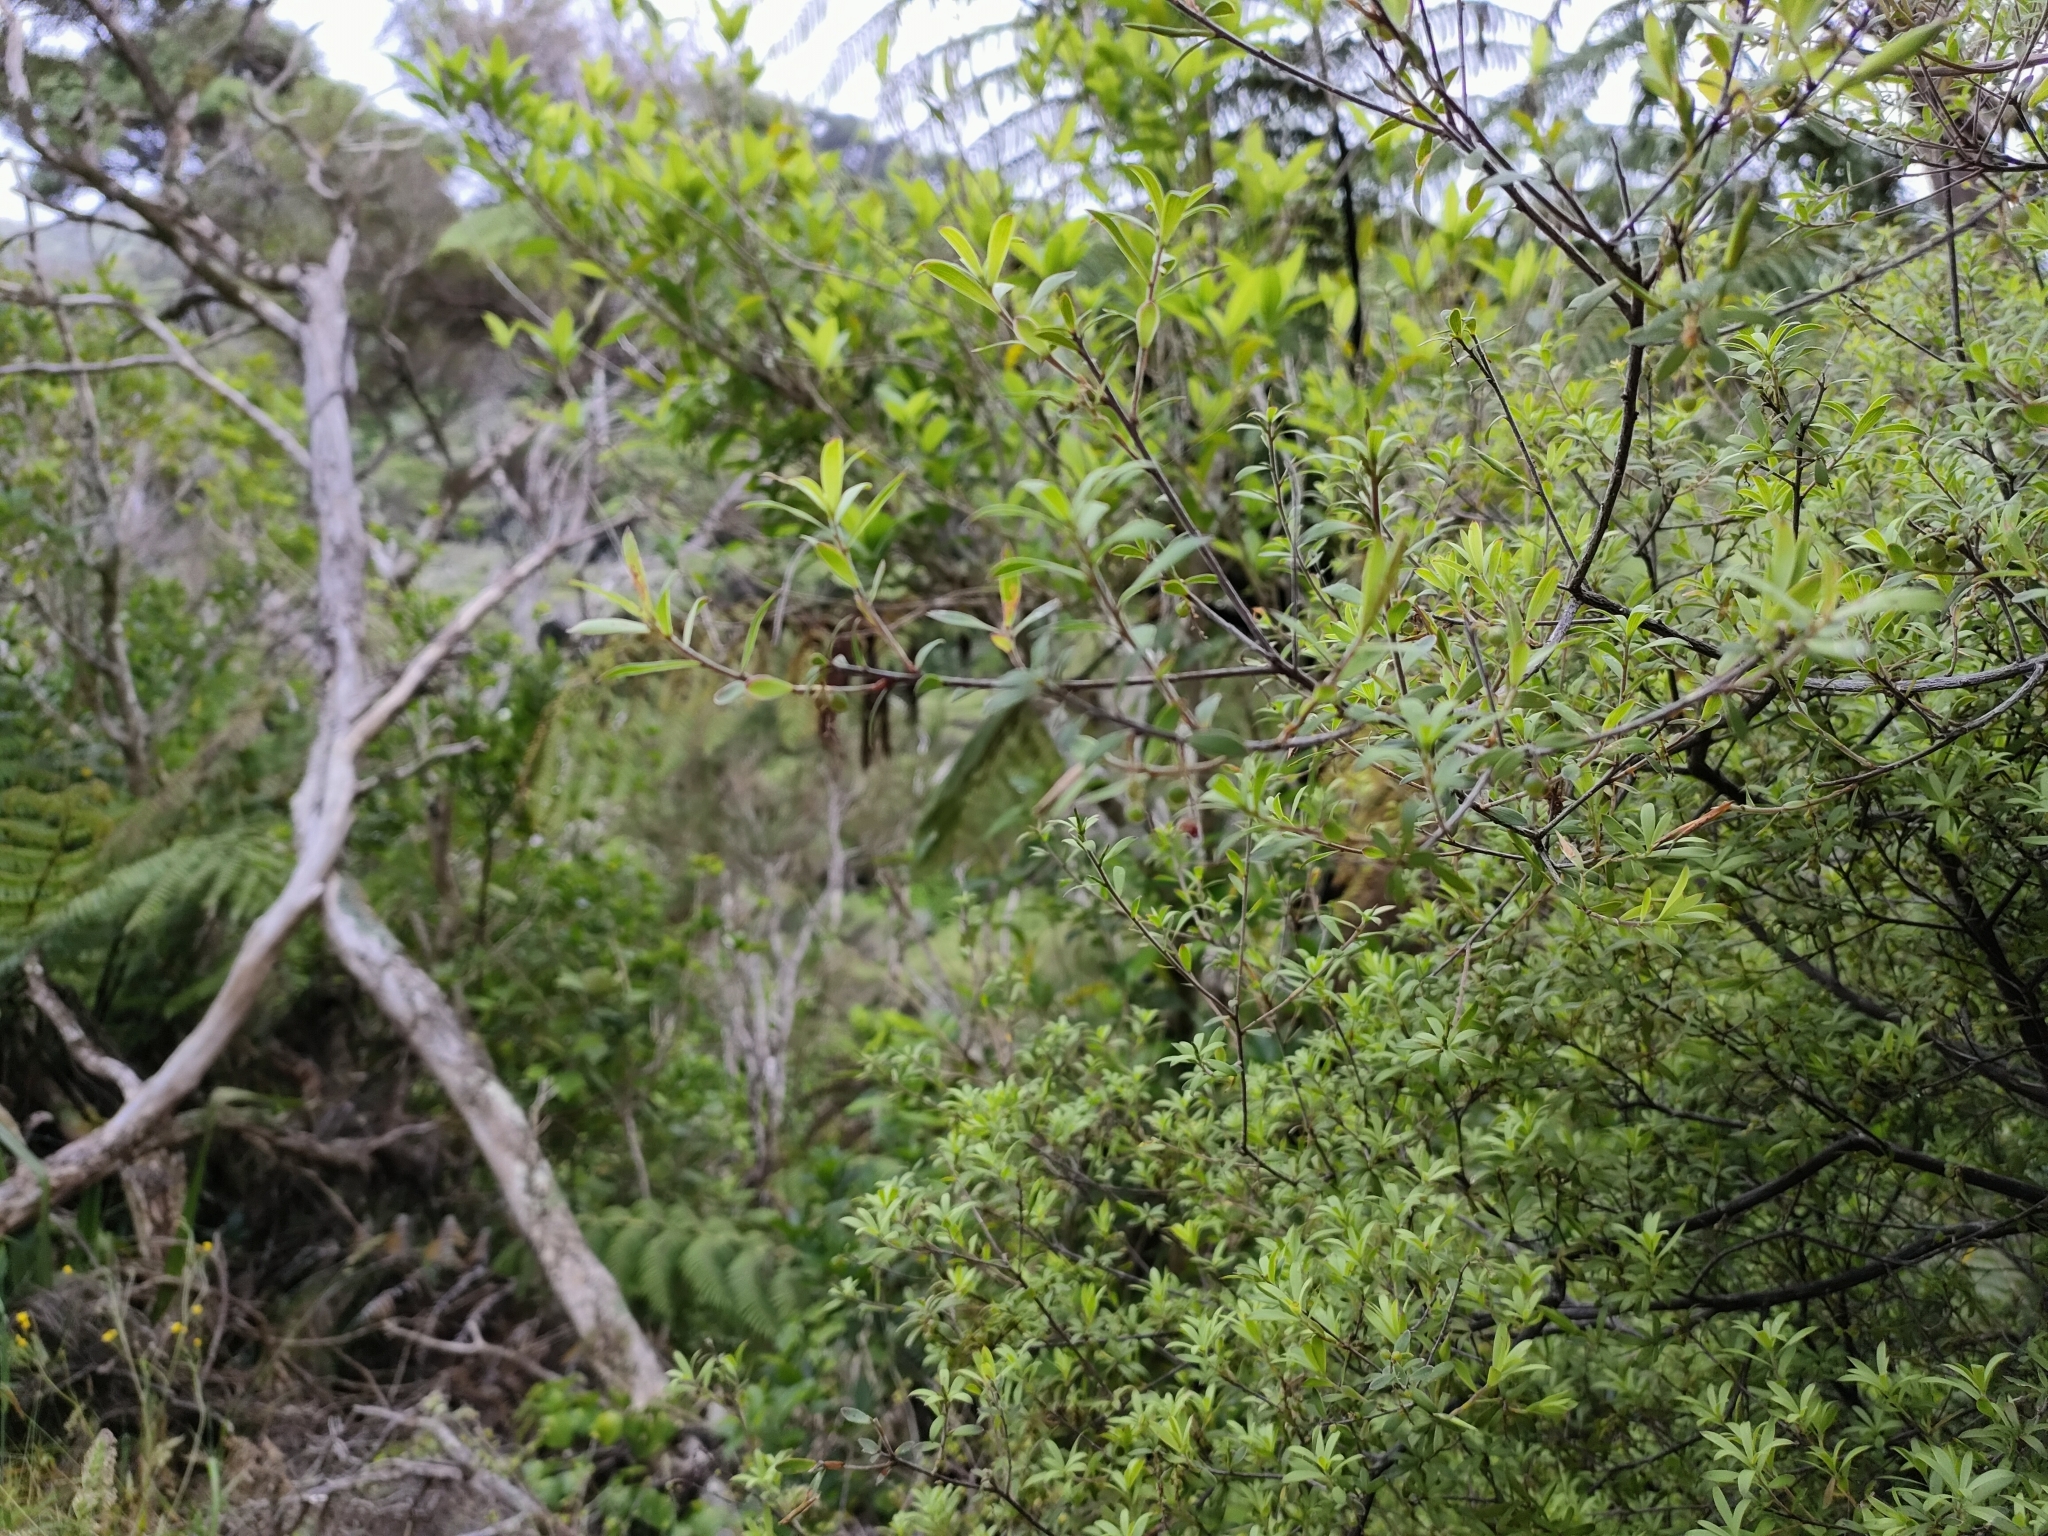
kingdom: Plantae
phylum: Tracheophyta
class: Magnoliopsida
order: Ericales
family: Ericaceae
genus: Leucopogon
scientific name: Leucopogon fasciculatus
